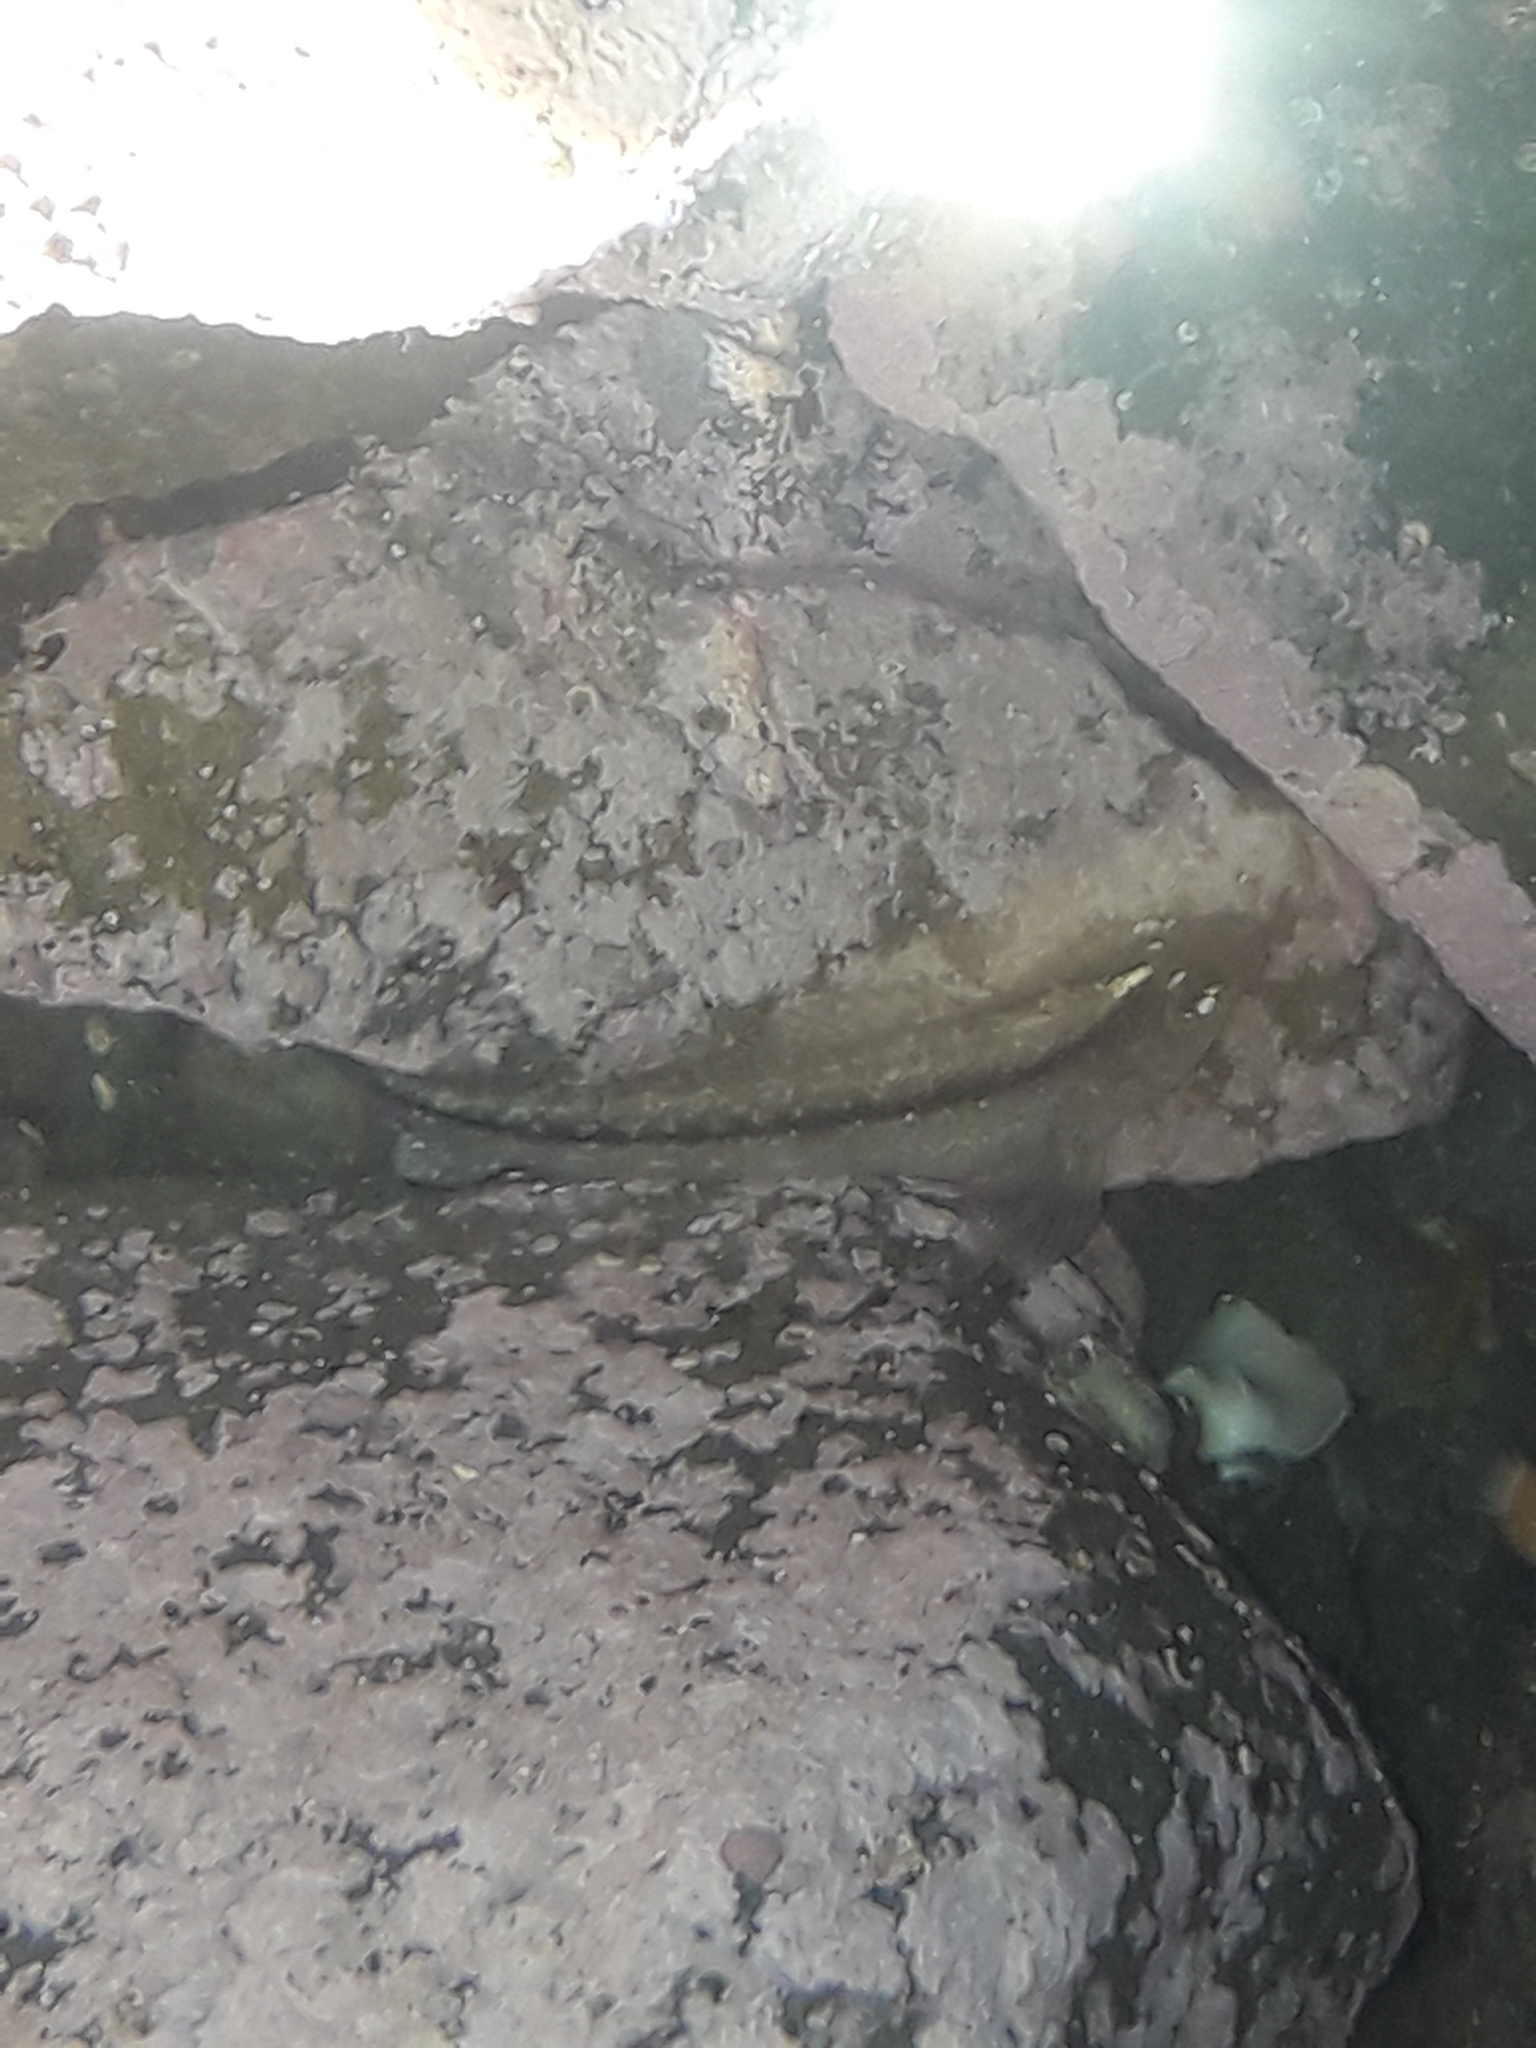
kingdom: Animalia
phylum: Chordata
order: Perciformes
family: Tripterygiidae
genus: Forsterygion
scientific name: Forsterygion lapillum
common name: Common triplefin
